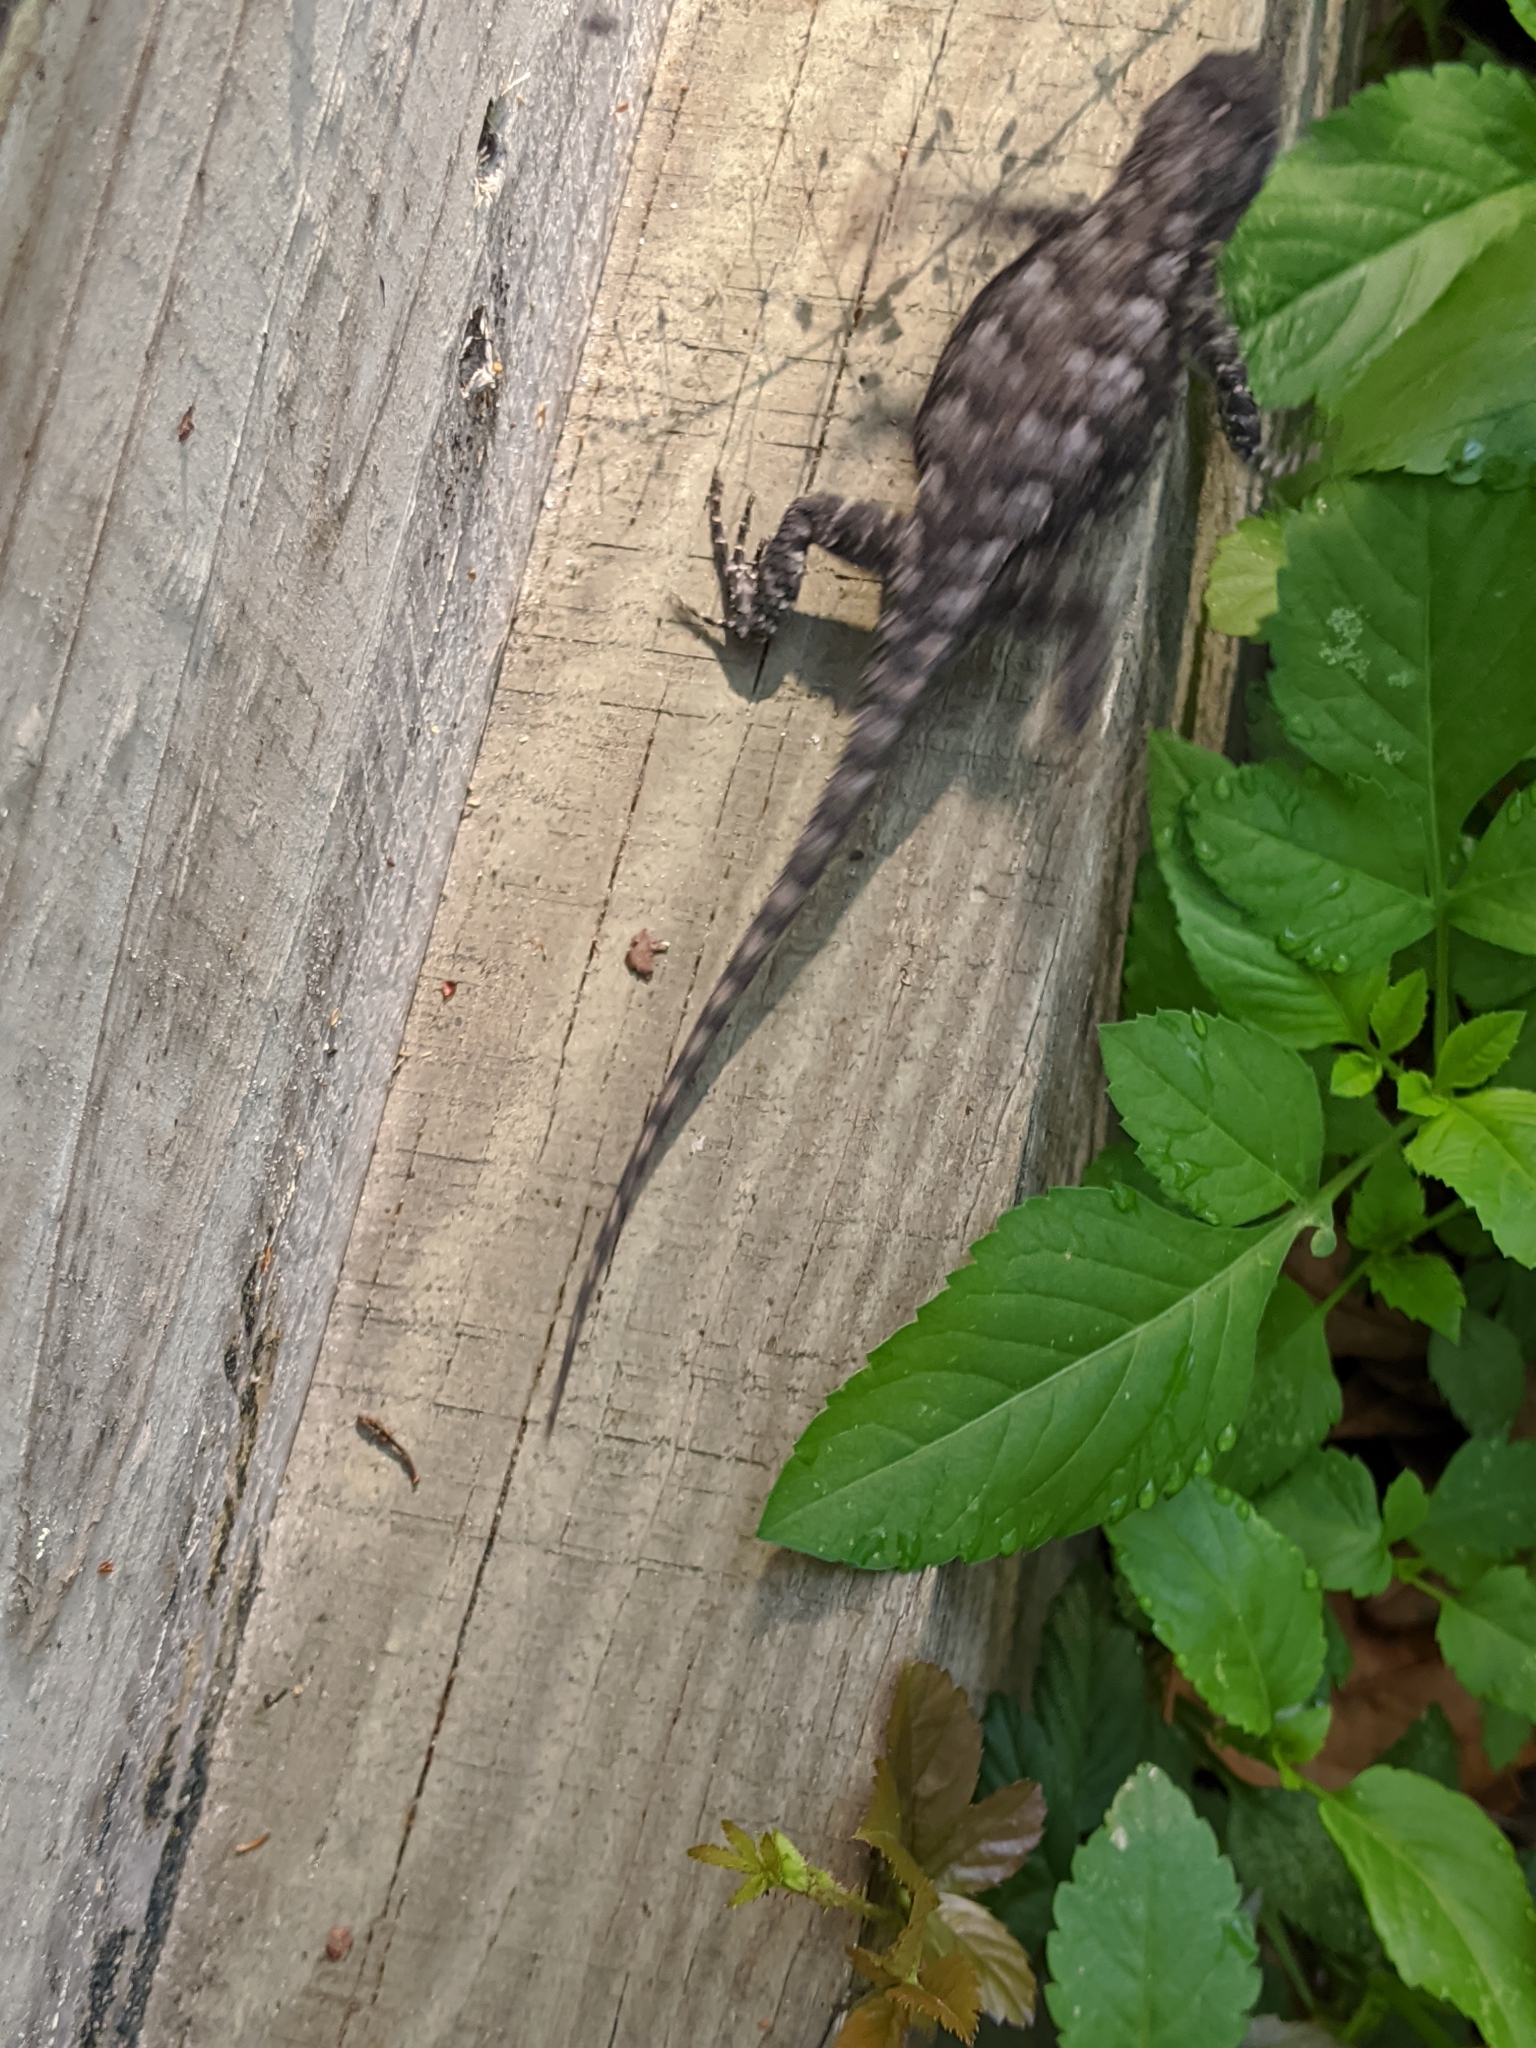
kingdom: Animalia
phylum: Chordata
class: Squamata
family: Phrynosomatidae
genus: Sceloporus
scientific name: Sceloporus undulatus
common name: Eastern fence lizard
